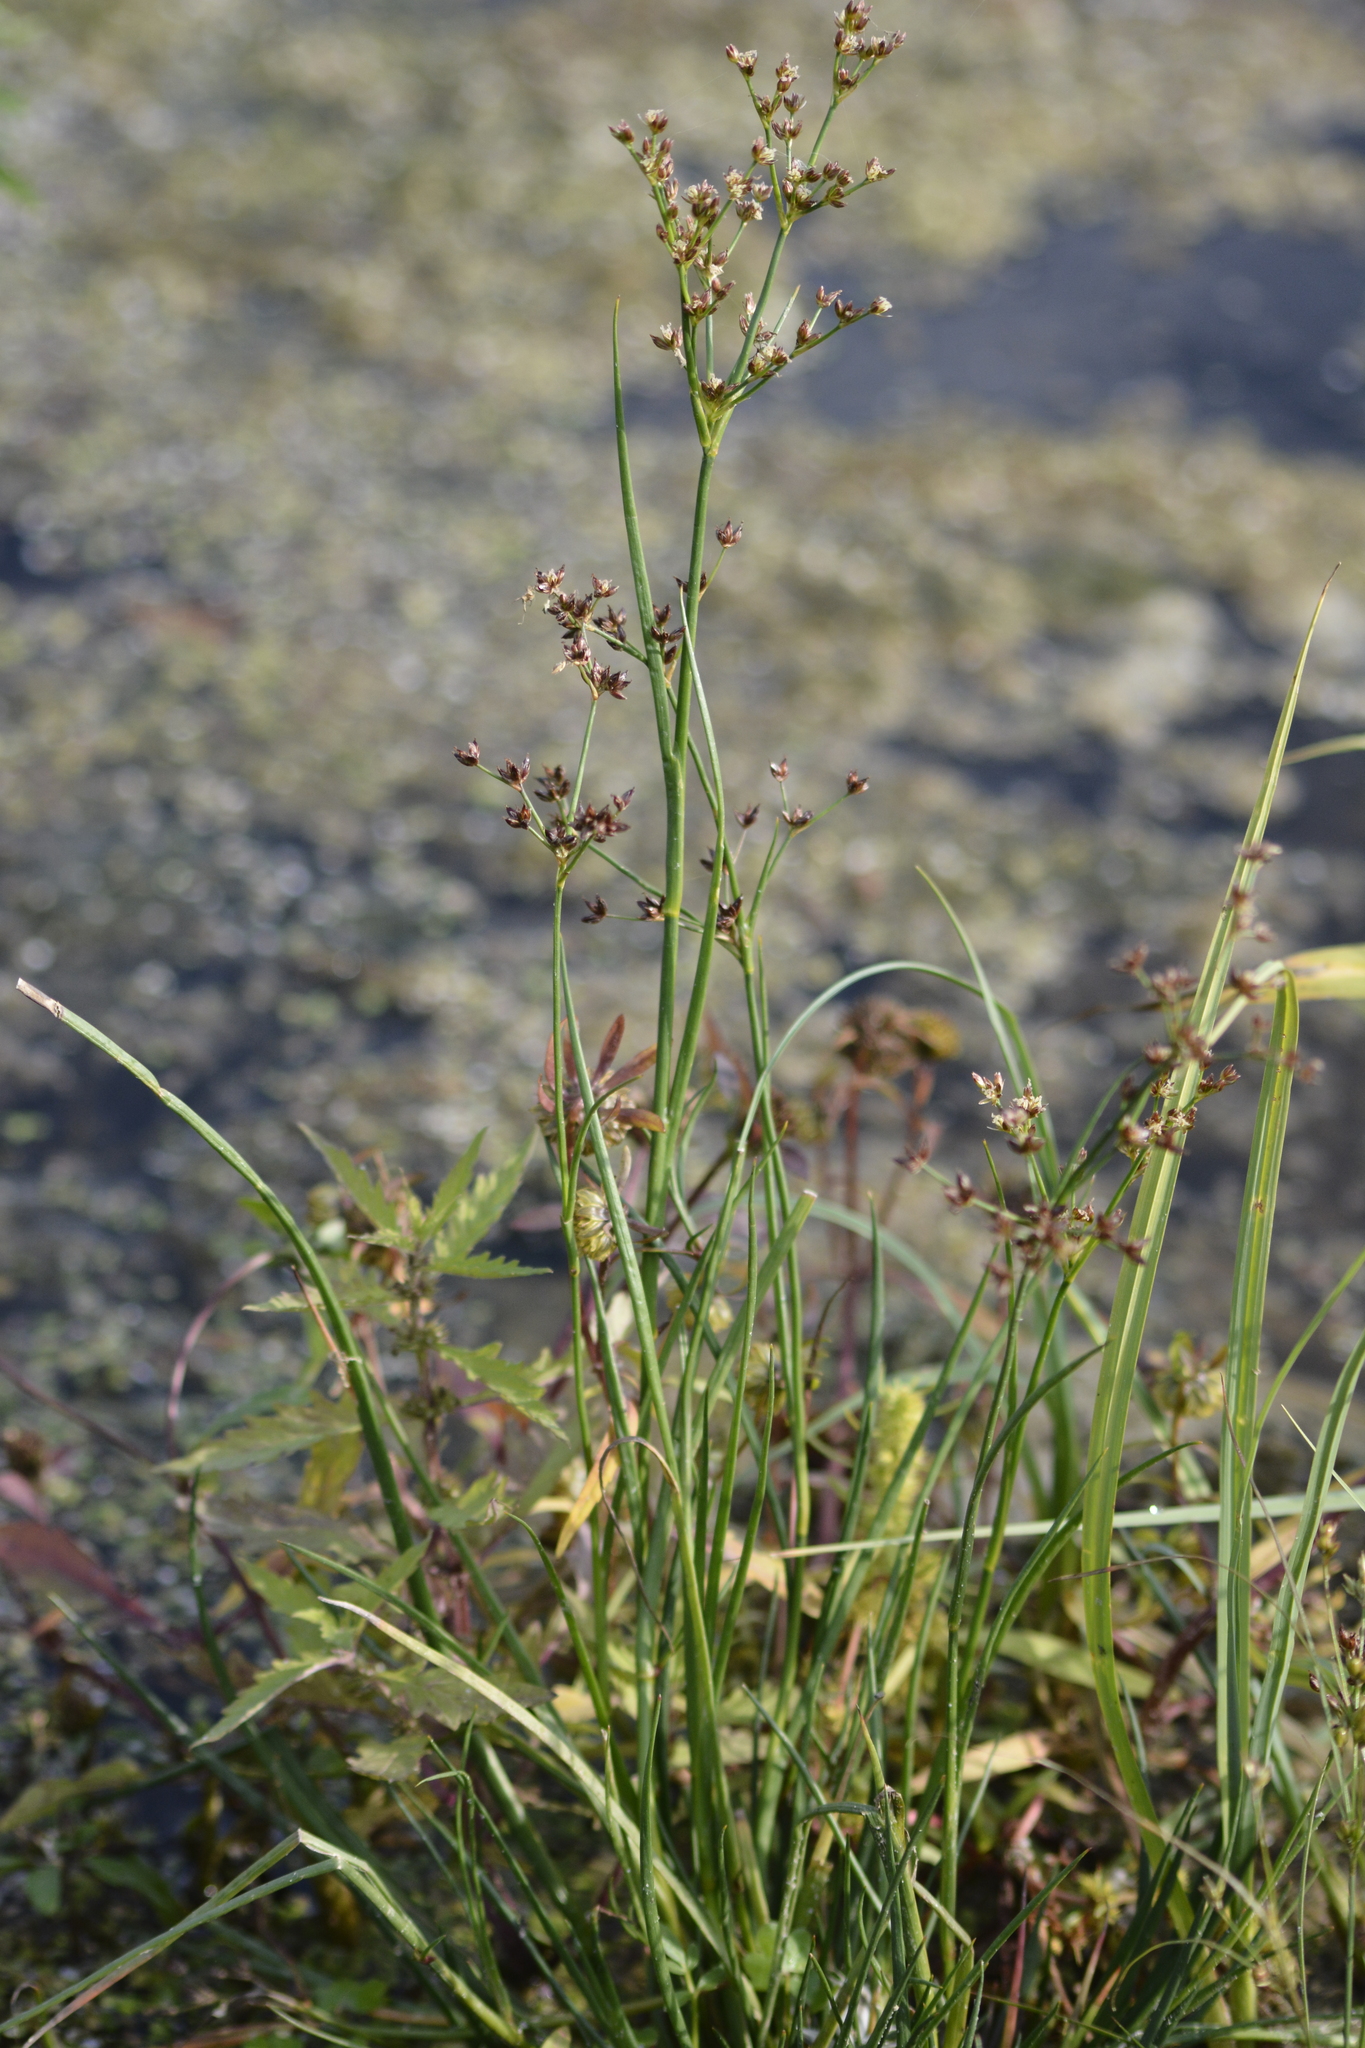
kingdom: Plantae
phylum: Tracheophyta
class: Liliopsida
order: Poales
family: Juncaceae
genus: Juncus
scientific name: Juncus articulatus
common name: Jointed rush
